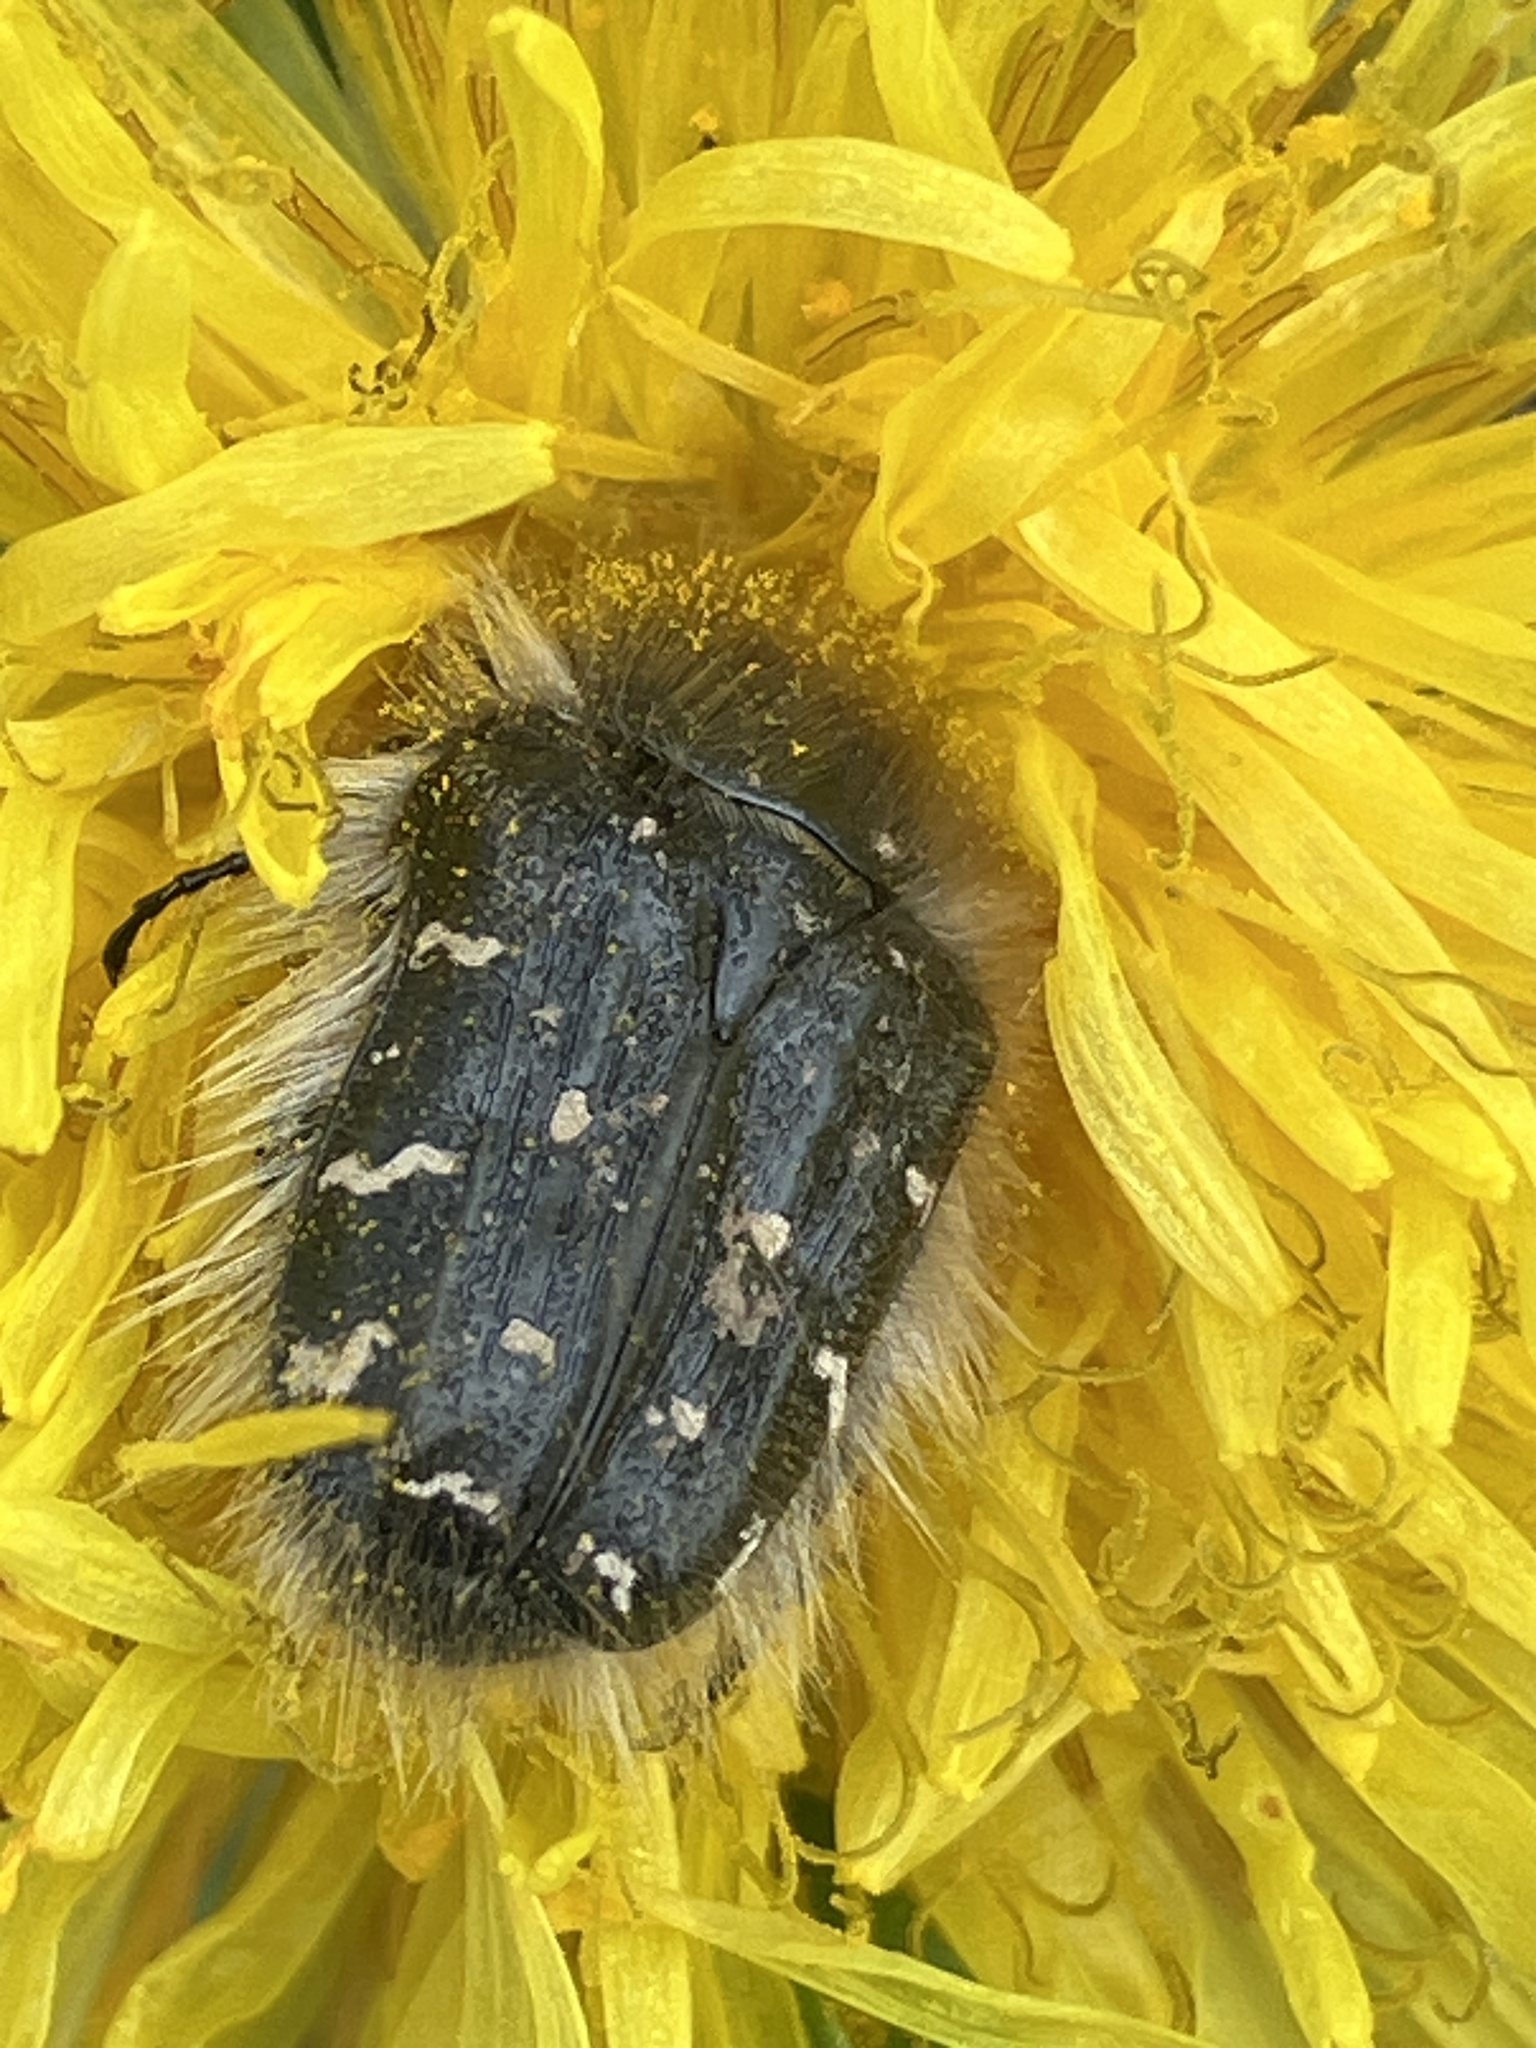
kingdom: Animalia
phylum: Arthropoda
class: Insecta
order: Coleoptera
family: Scarabaeidae
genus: Tropinota
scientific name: Tropinota hirta
